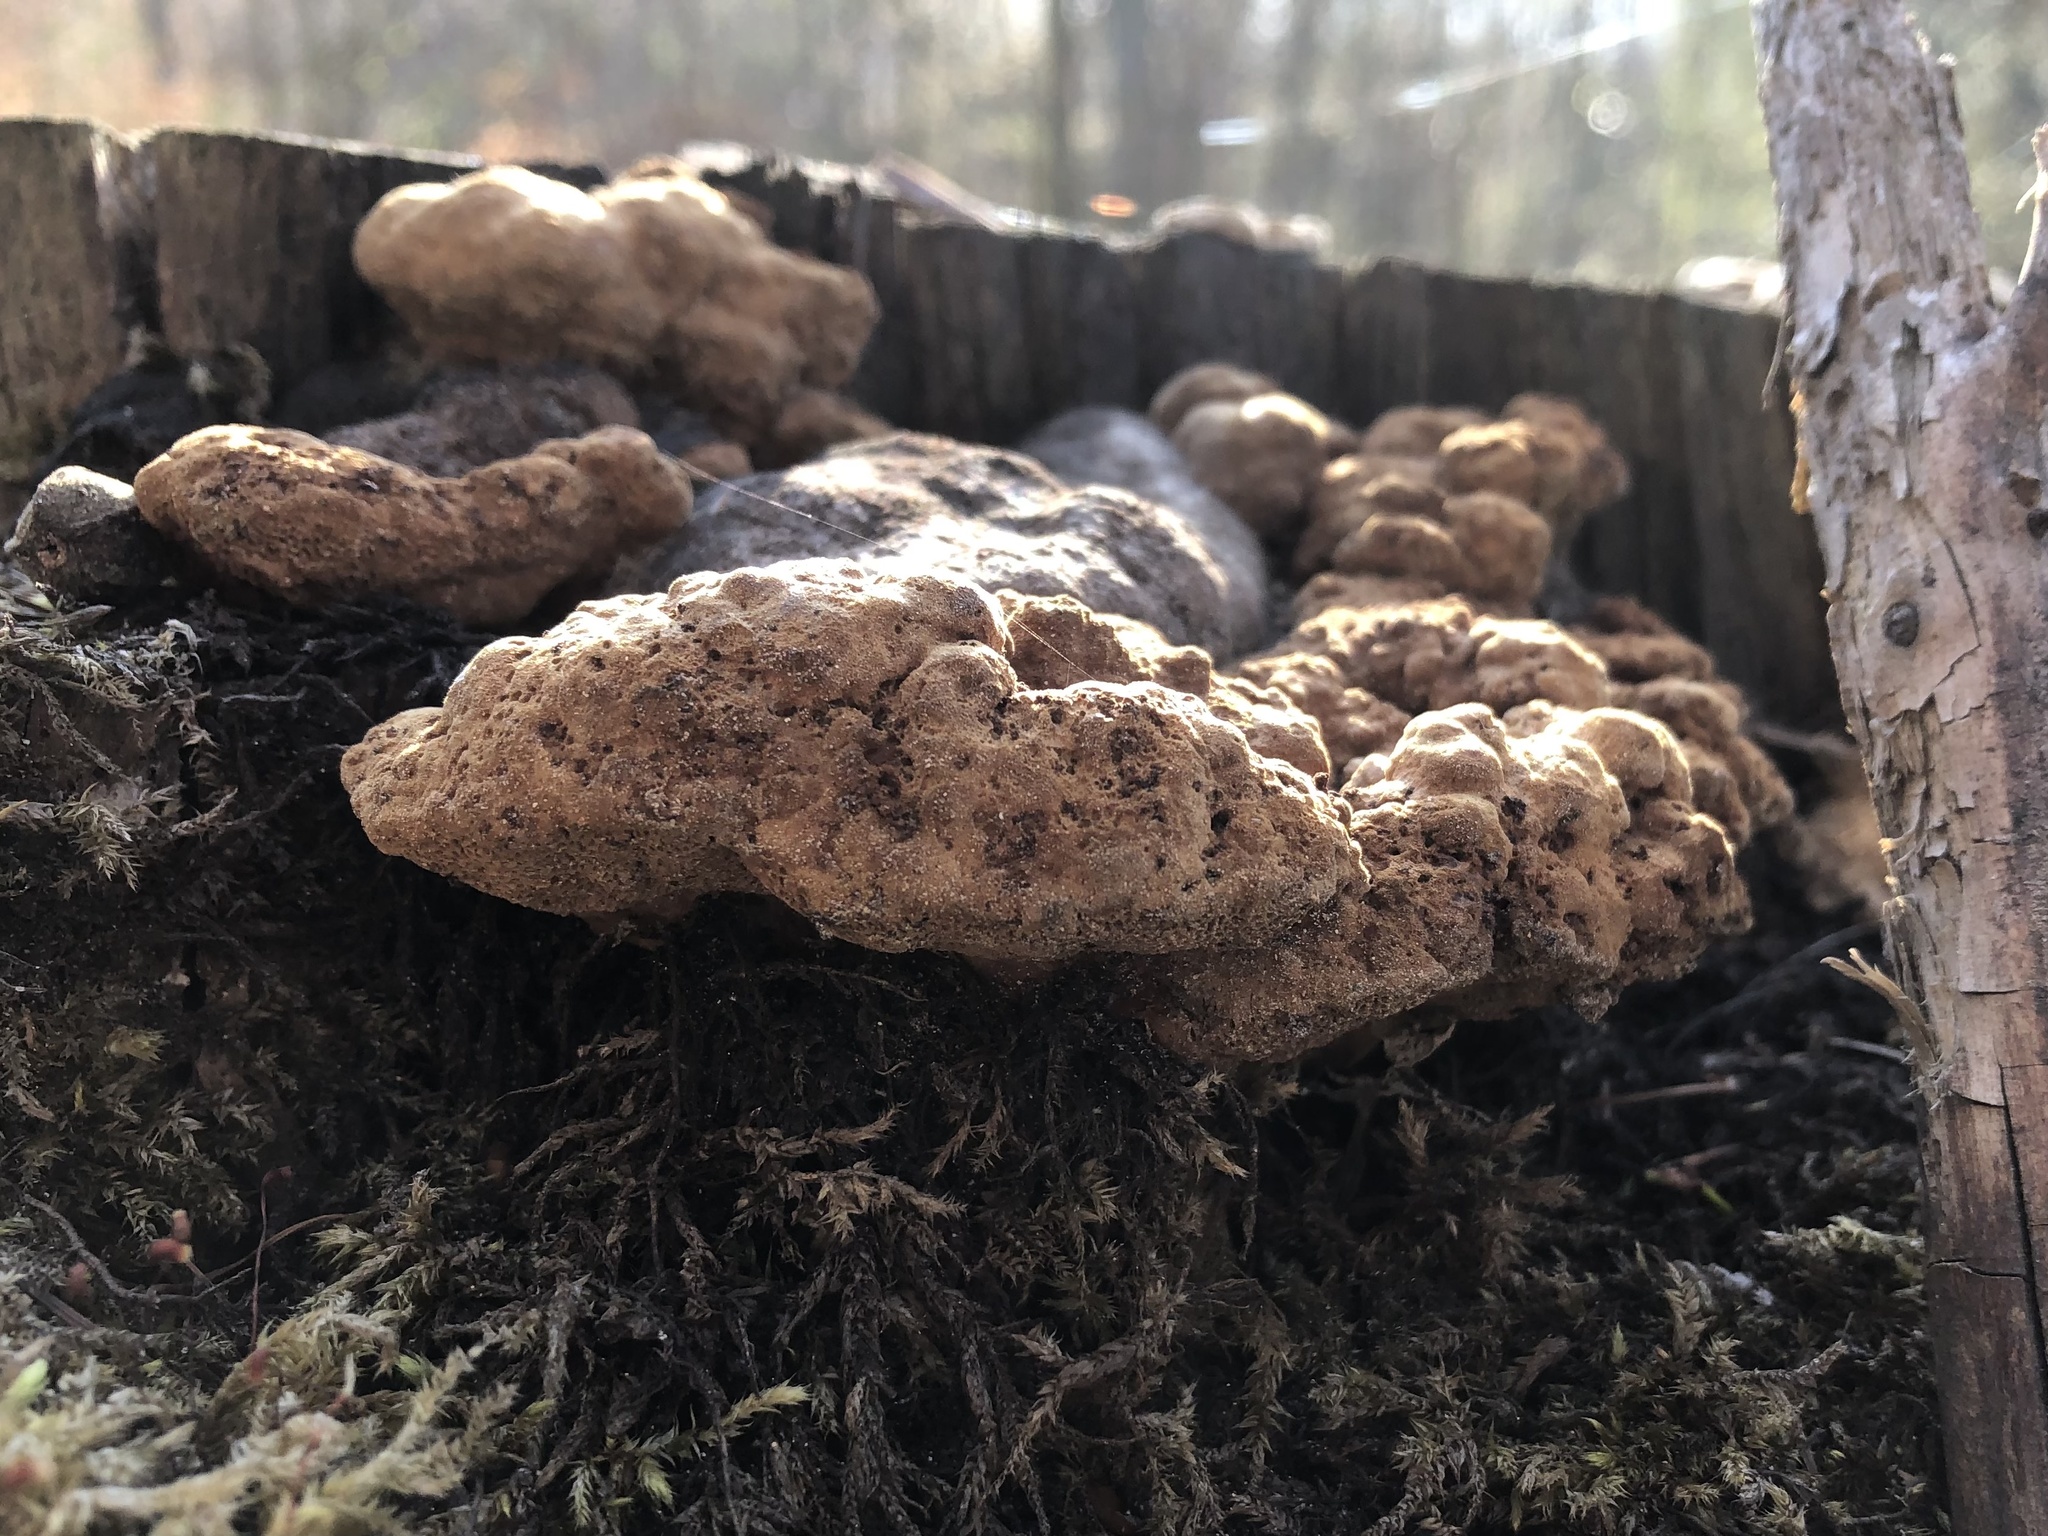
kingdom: Fungi
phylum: Basidiomycota
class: Agaricomycetes
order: Gloeophyllales
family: Gloeophyllaceae
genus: Gloeophyllum
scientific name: Gloeophyllum odoratum
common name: Anise mazegill
